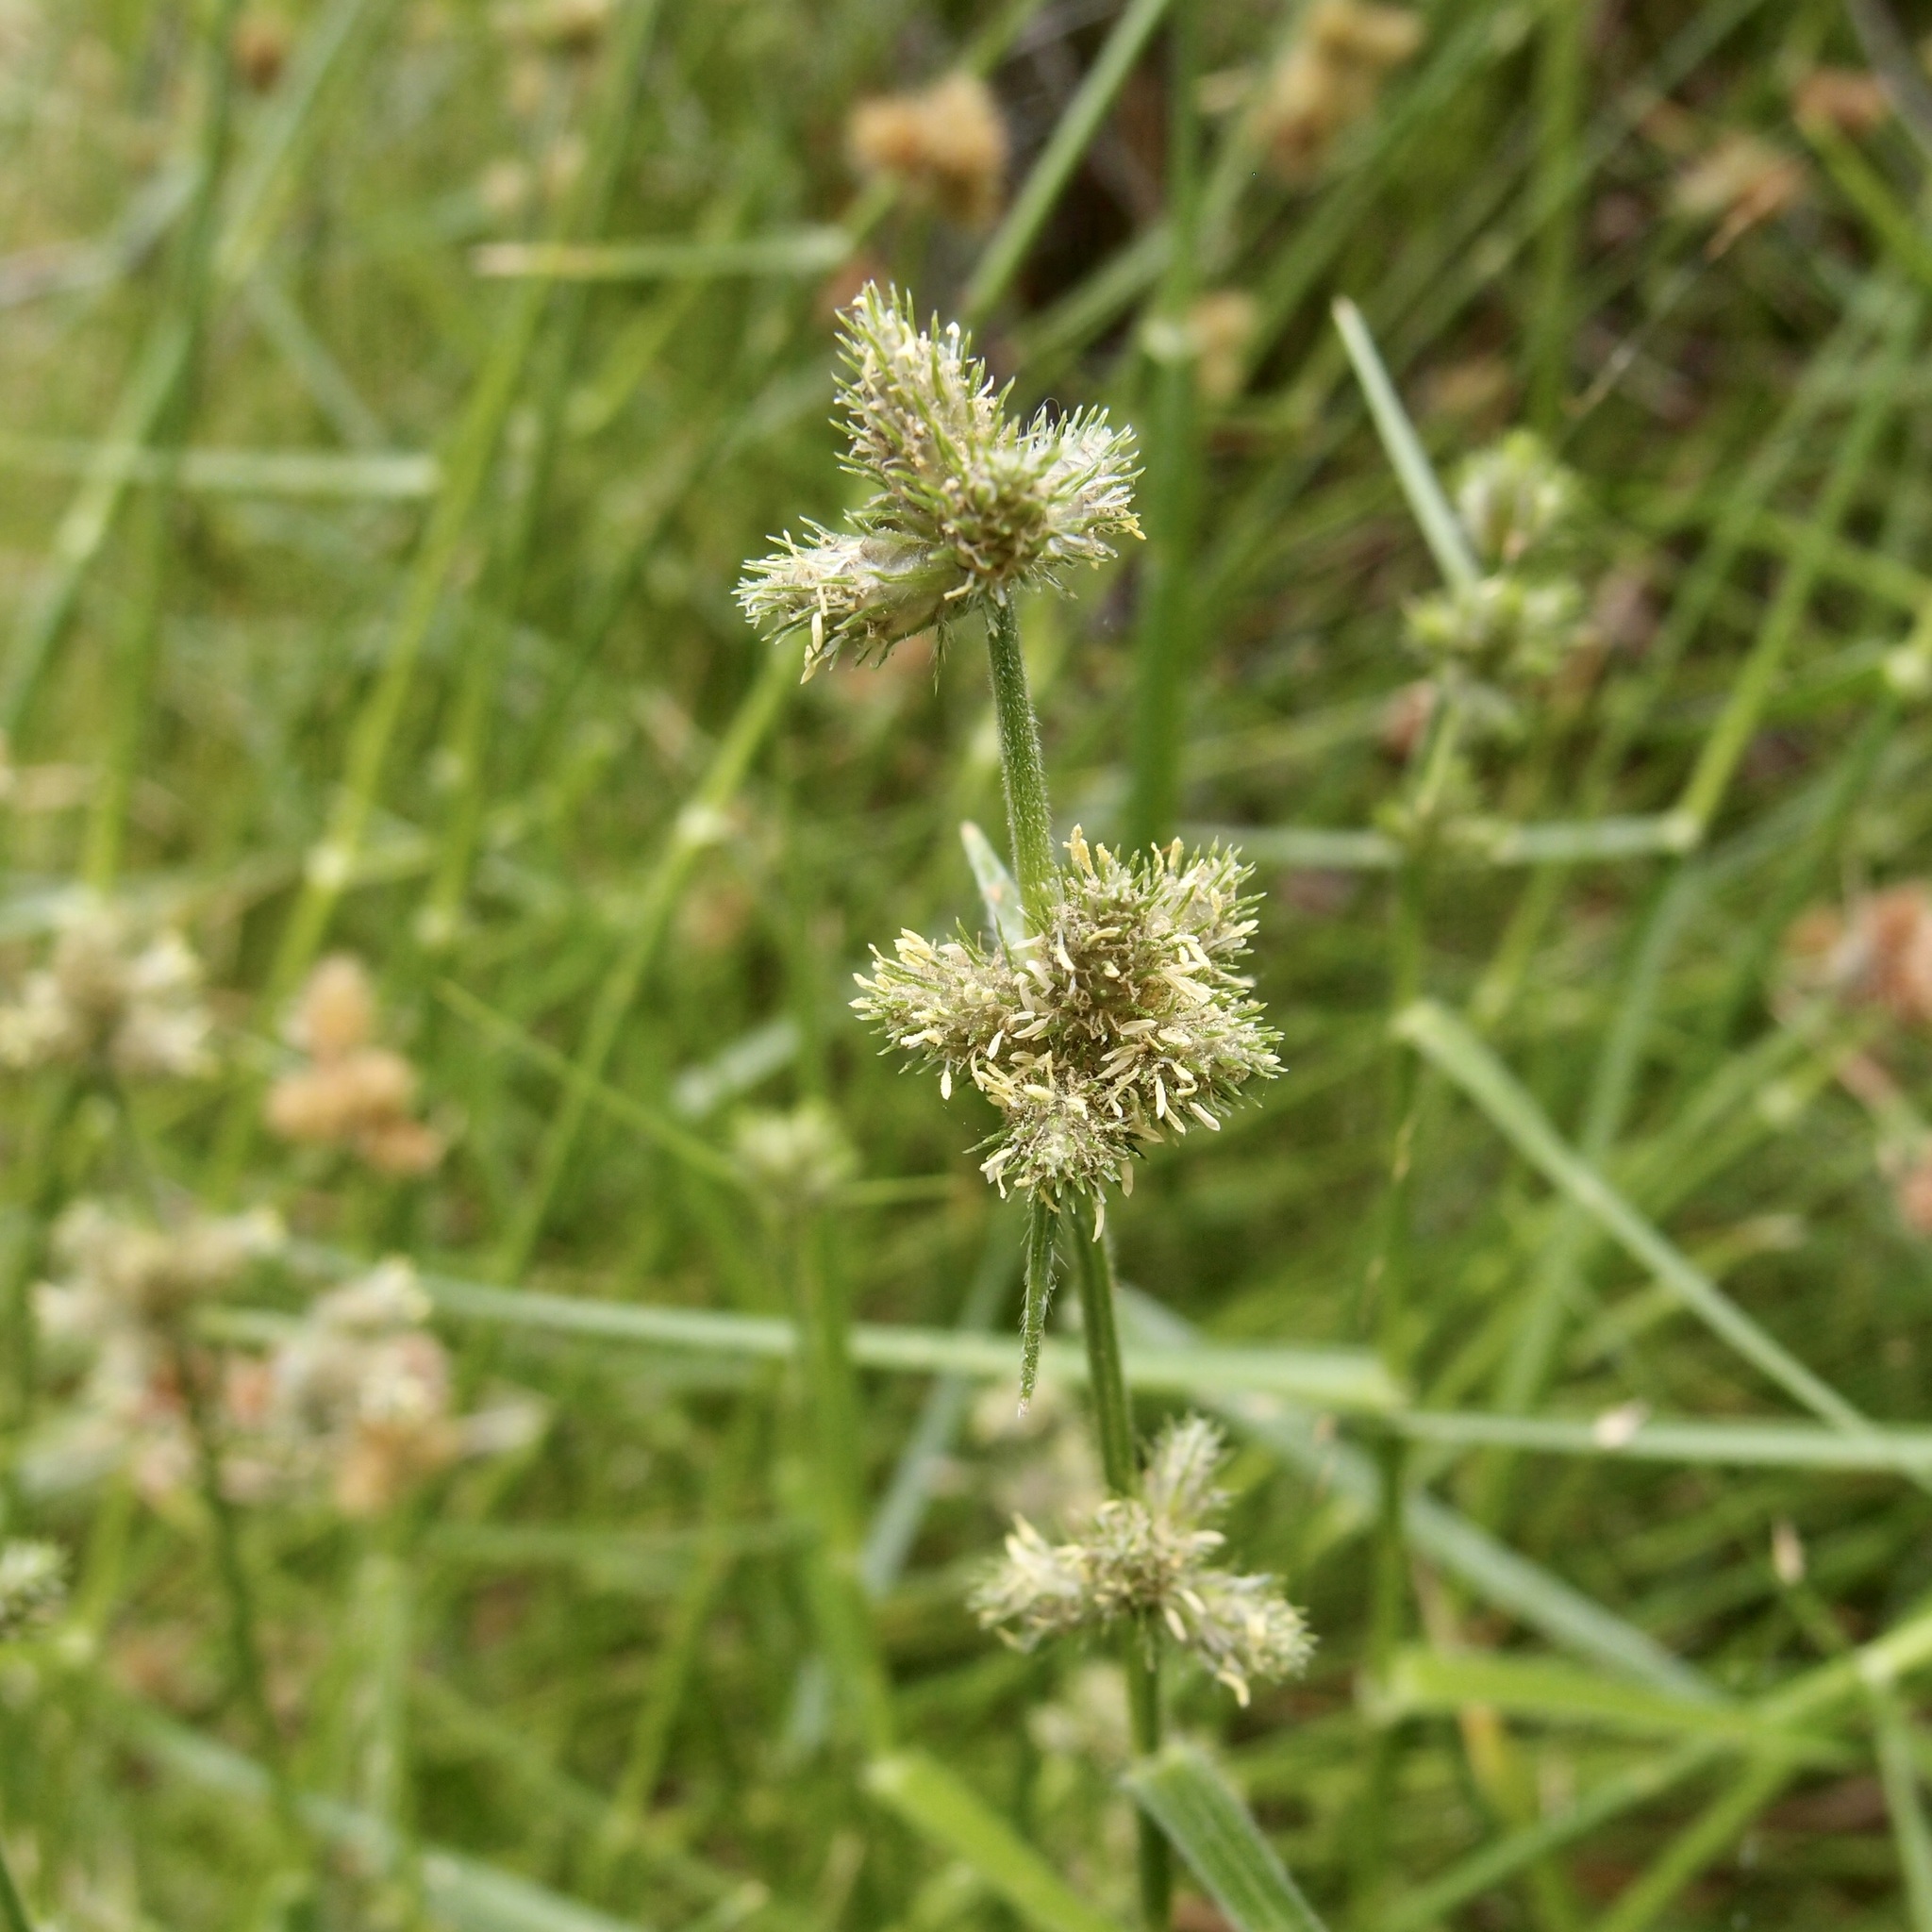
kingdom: Plantae
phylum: Tracheophyta
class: Liliopsida
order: Poales
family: Cyperaceae
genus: Fuirena
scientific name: Fuirena simplex
